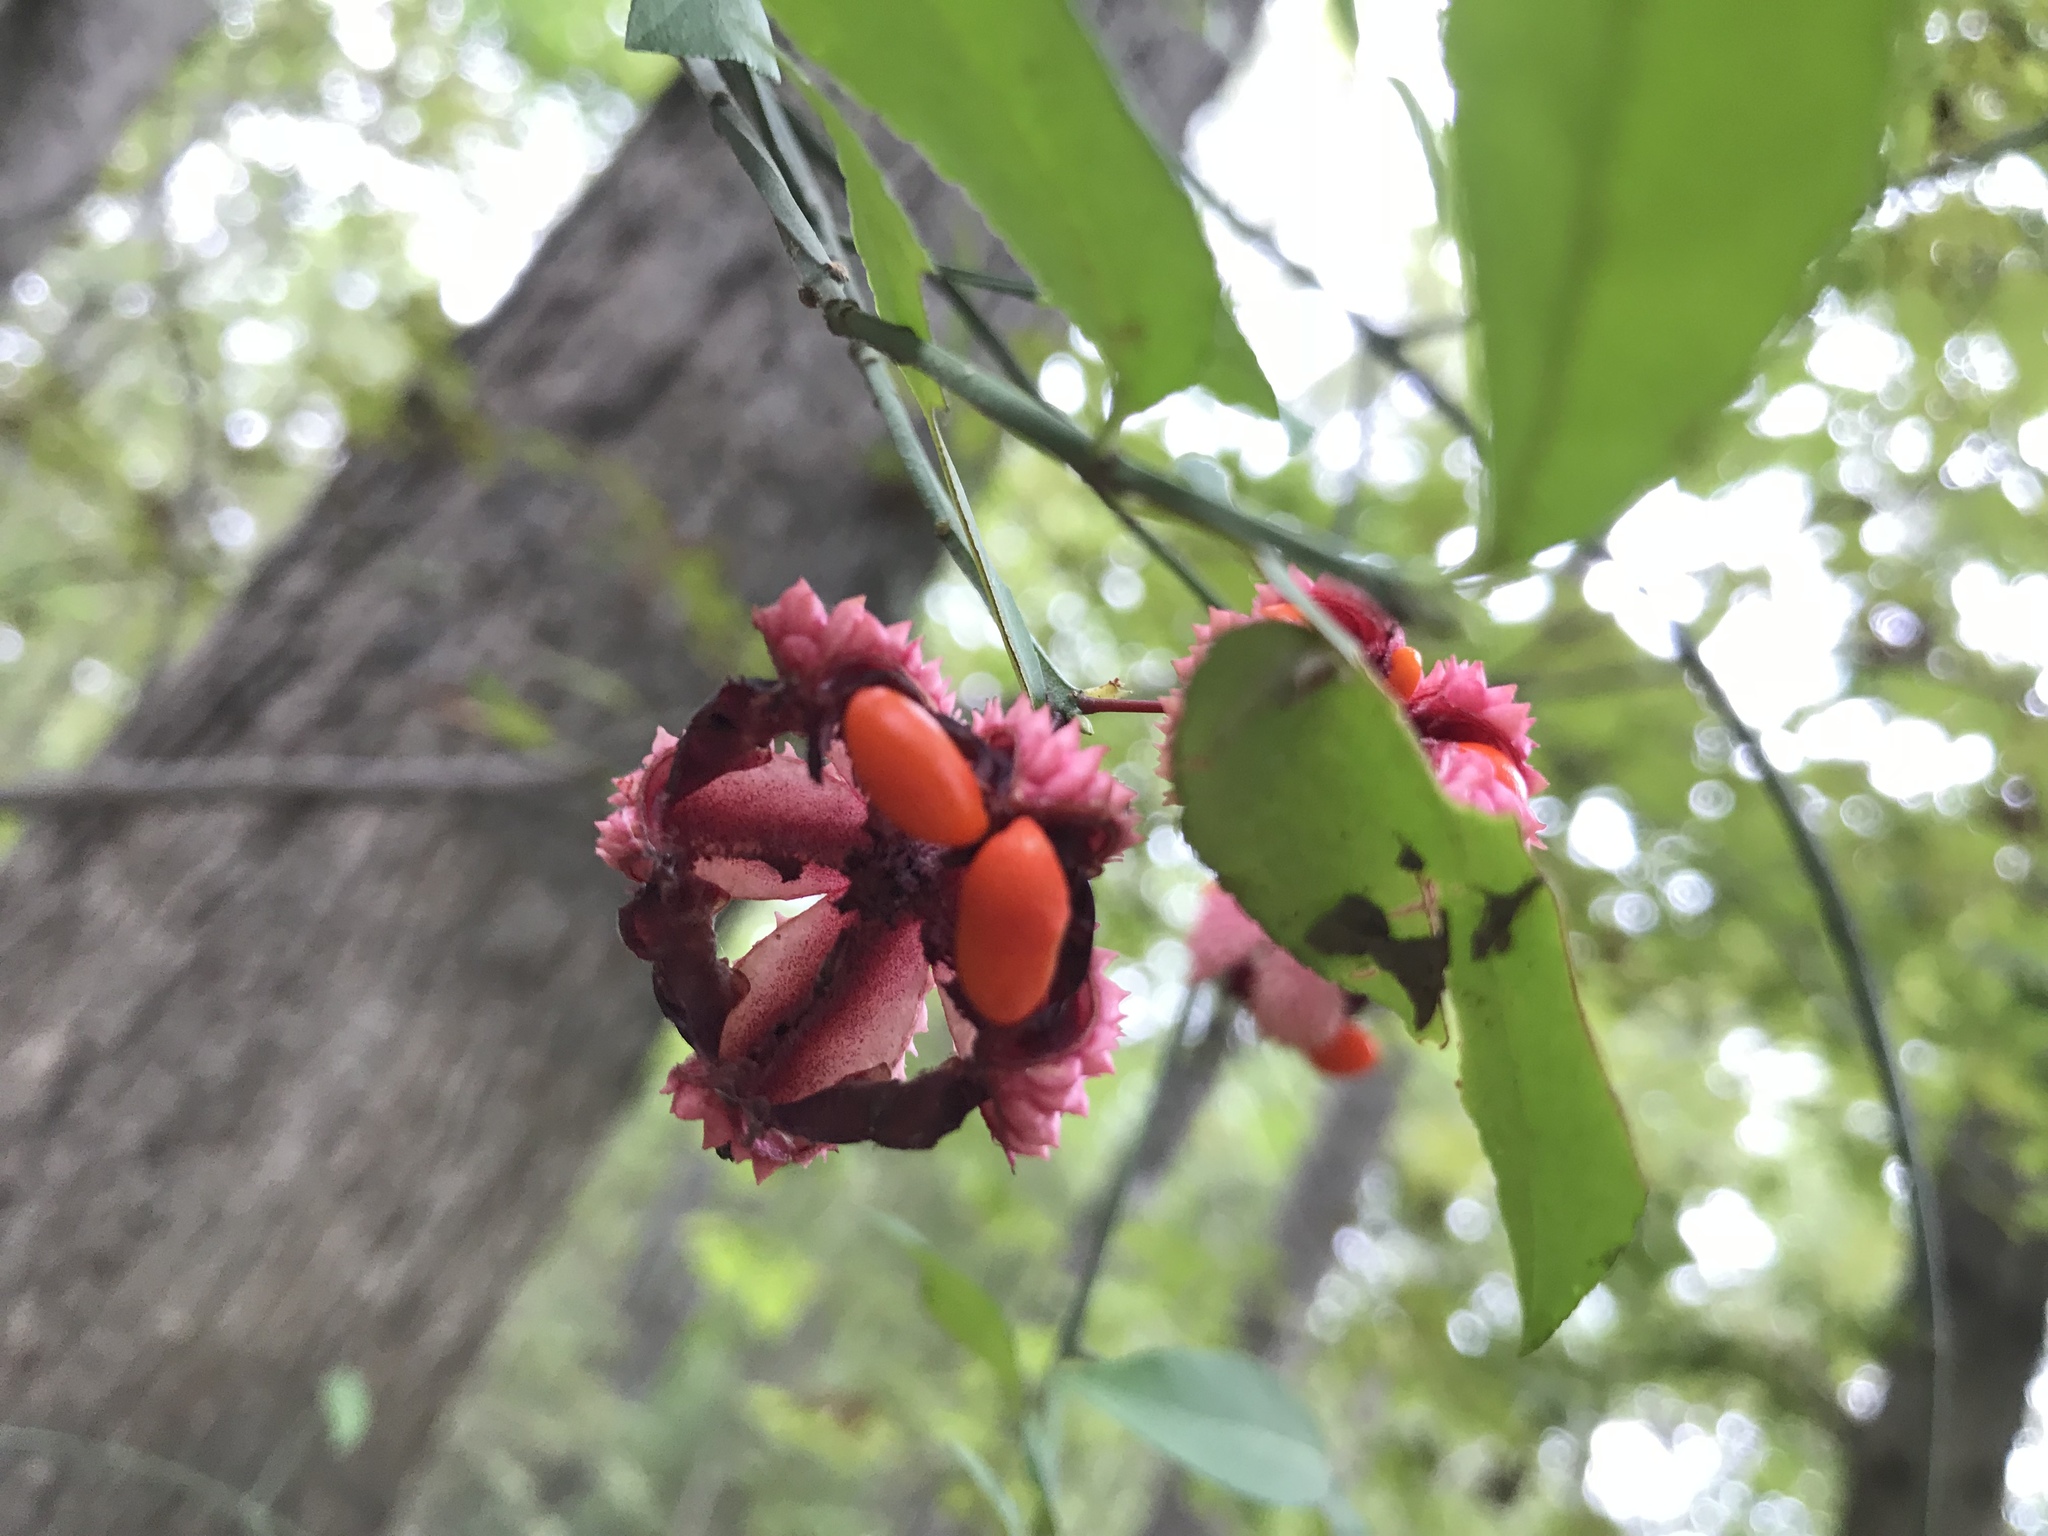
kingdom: Plantae
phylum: Tracheophyta
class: Magnoliopsida
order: Celastrales
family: Celastraceae
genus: Euonymus
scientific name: Euonymus americanus
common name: Bursting-heart
